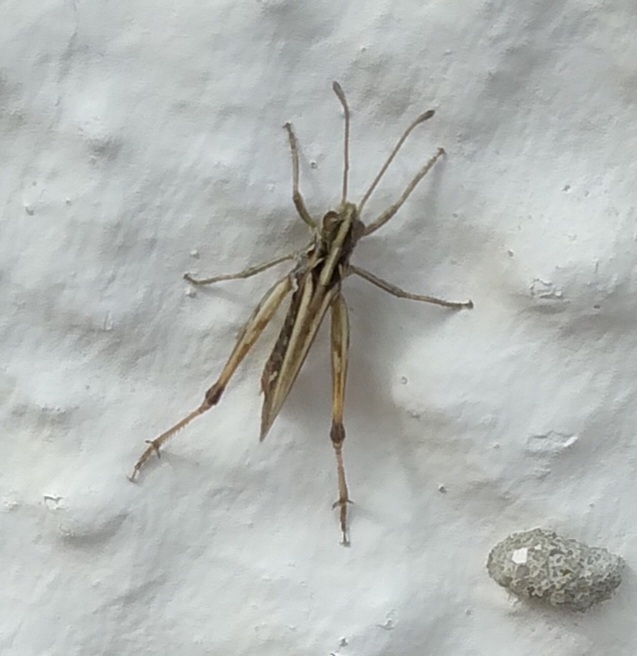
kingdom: Animalia
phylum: Arthropoda
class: Insecta
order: Orthoptera
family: Acrididae
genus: Myrmeleotettix
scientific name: Myrmeleotettix maculatus
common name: Mottled grasshopper
